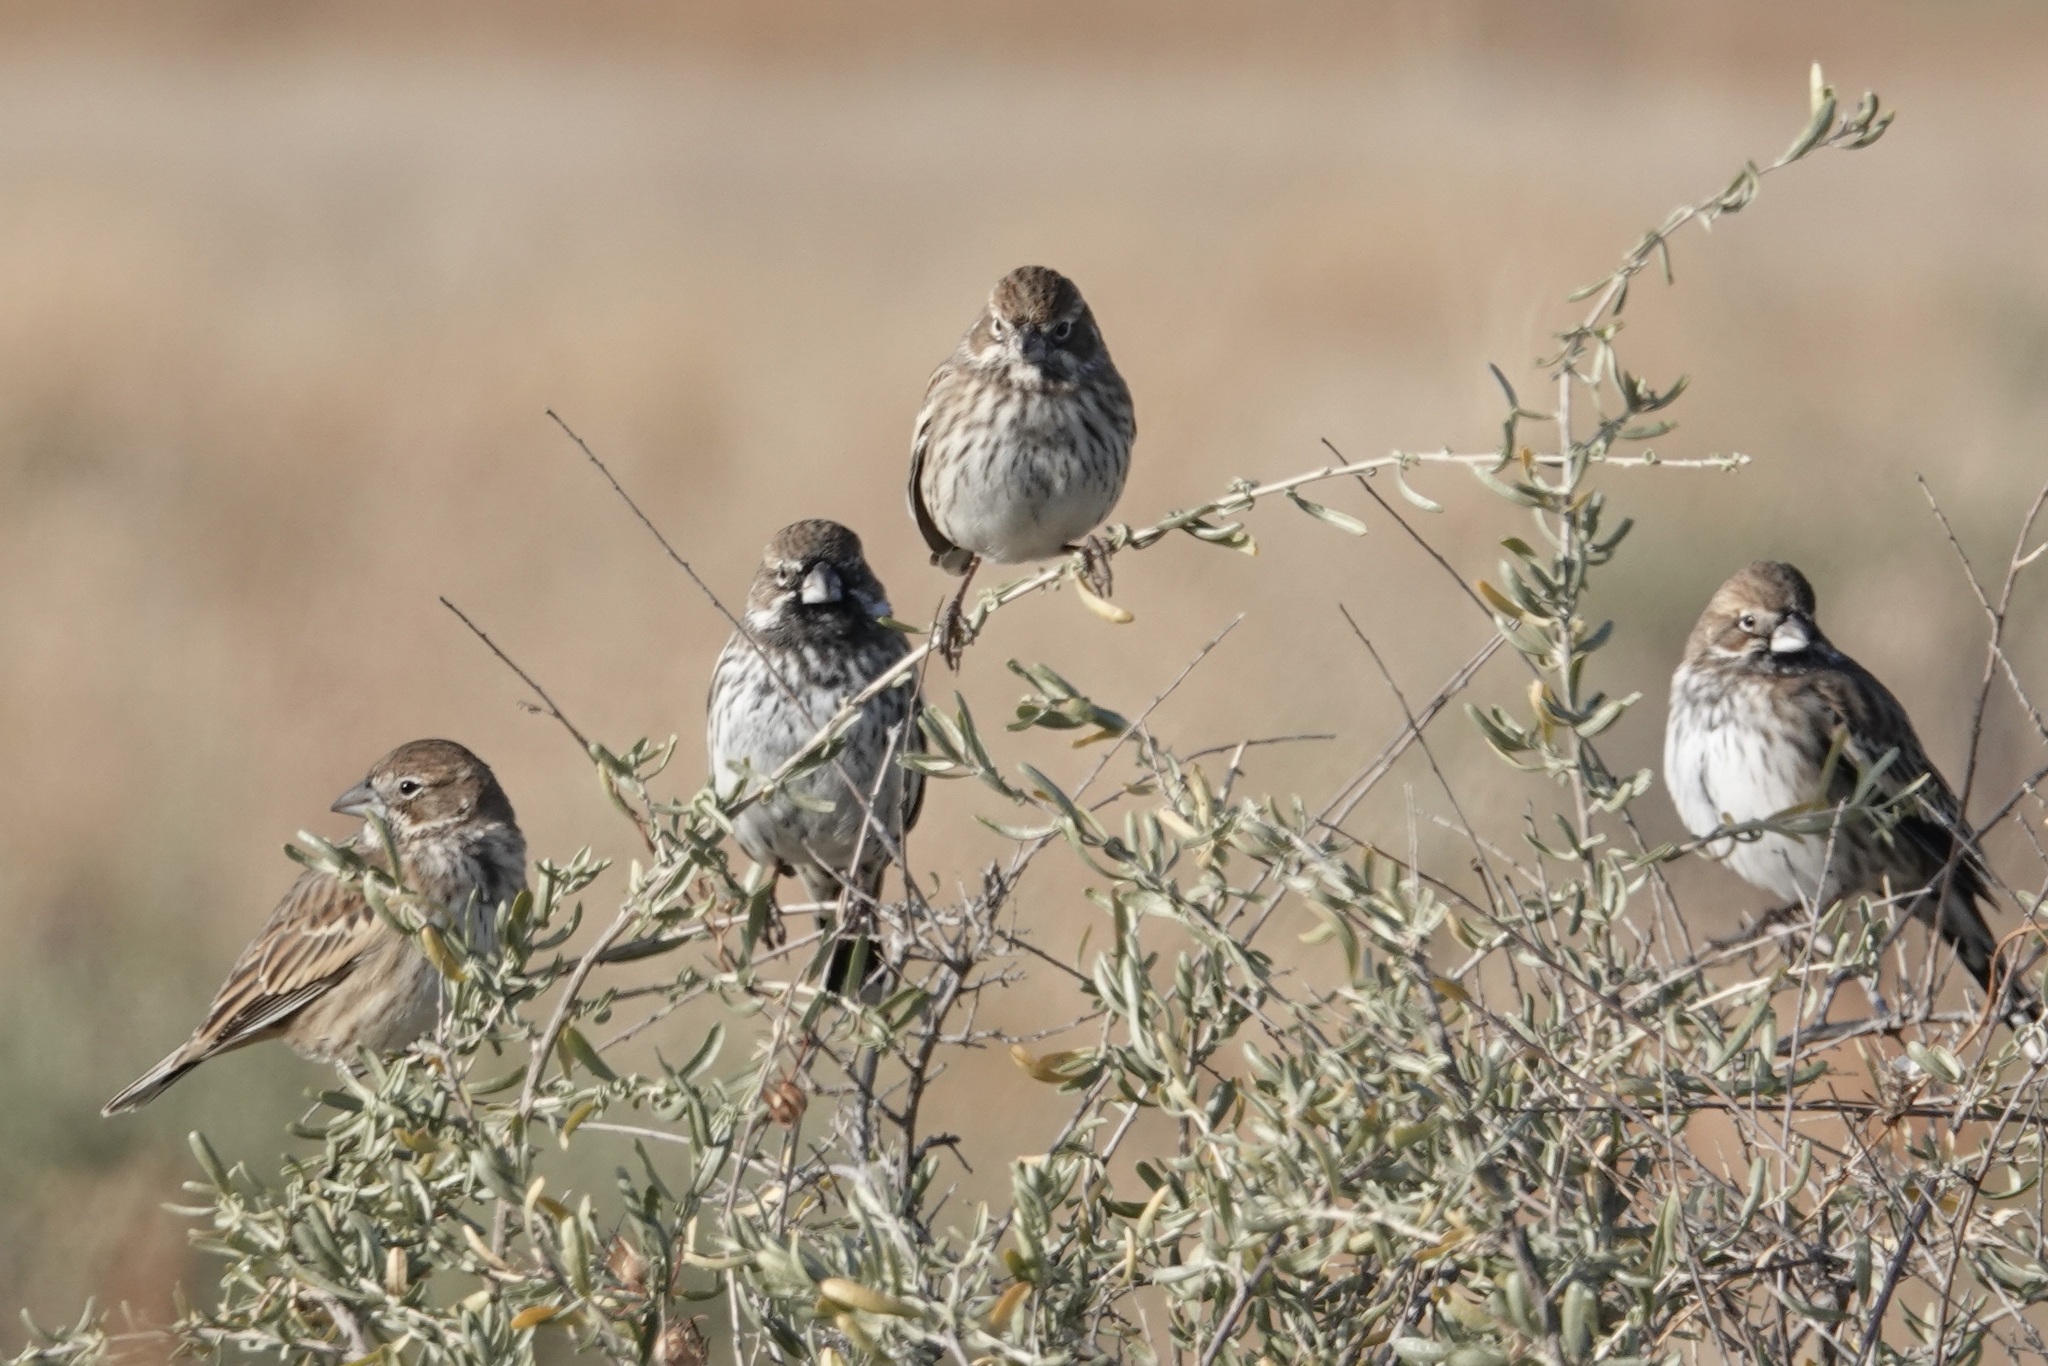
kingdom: Animalia
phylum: Chordata
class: Aves
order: Passeriformes
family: Passerellidae
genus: Calamospiza
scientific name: Calamospiza melanocorys
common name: Lark bunting
